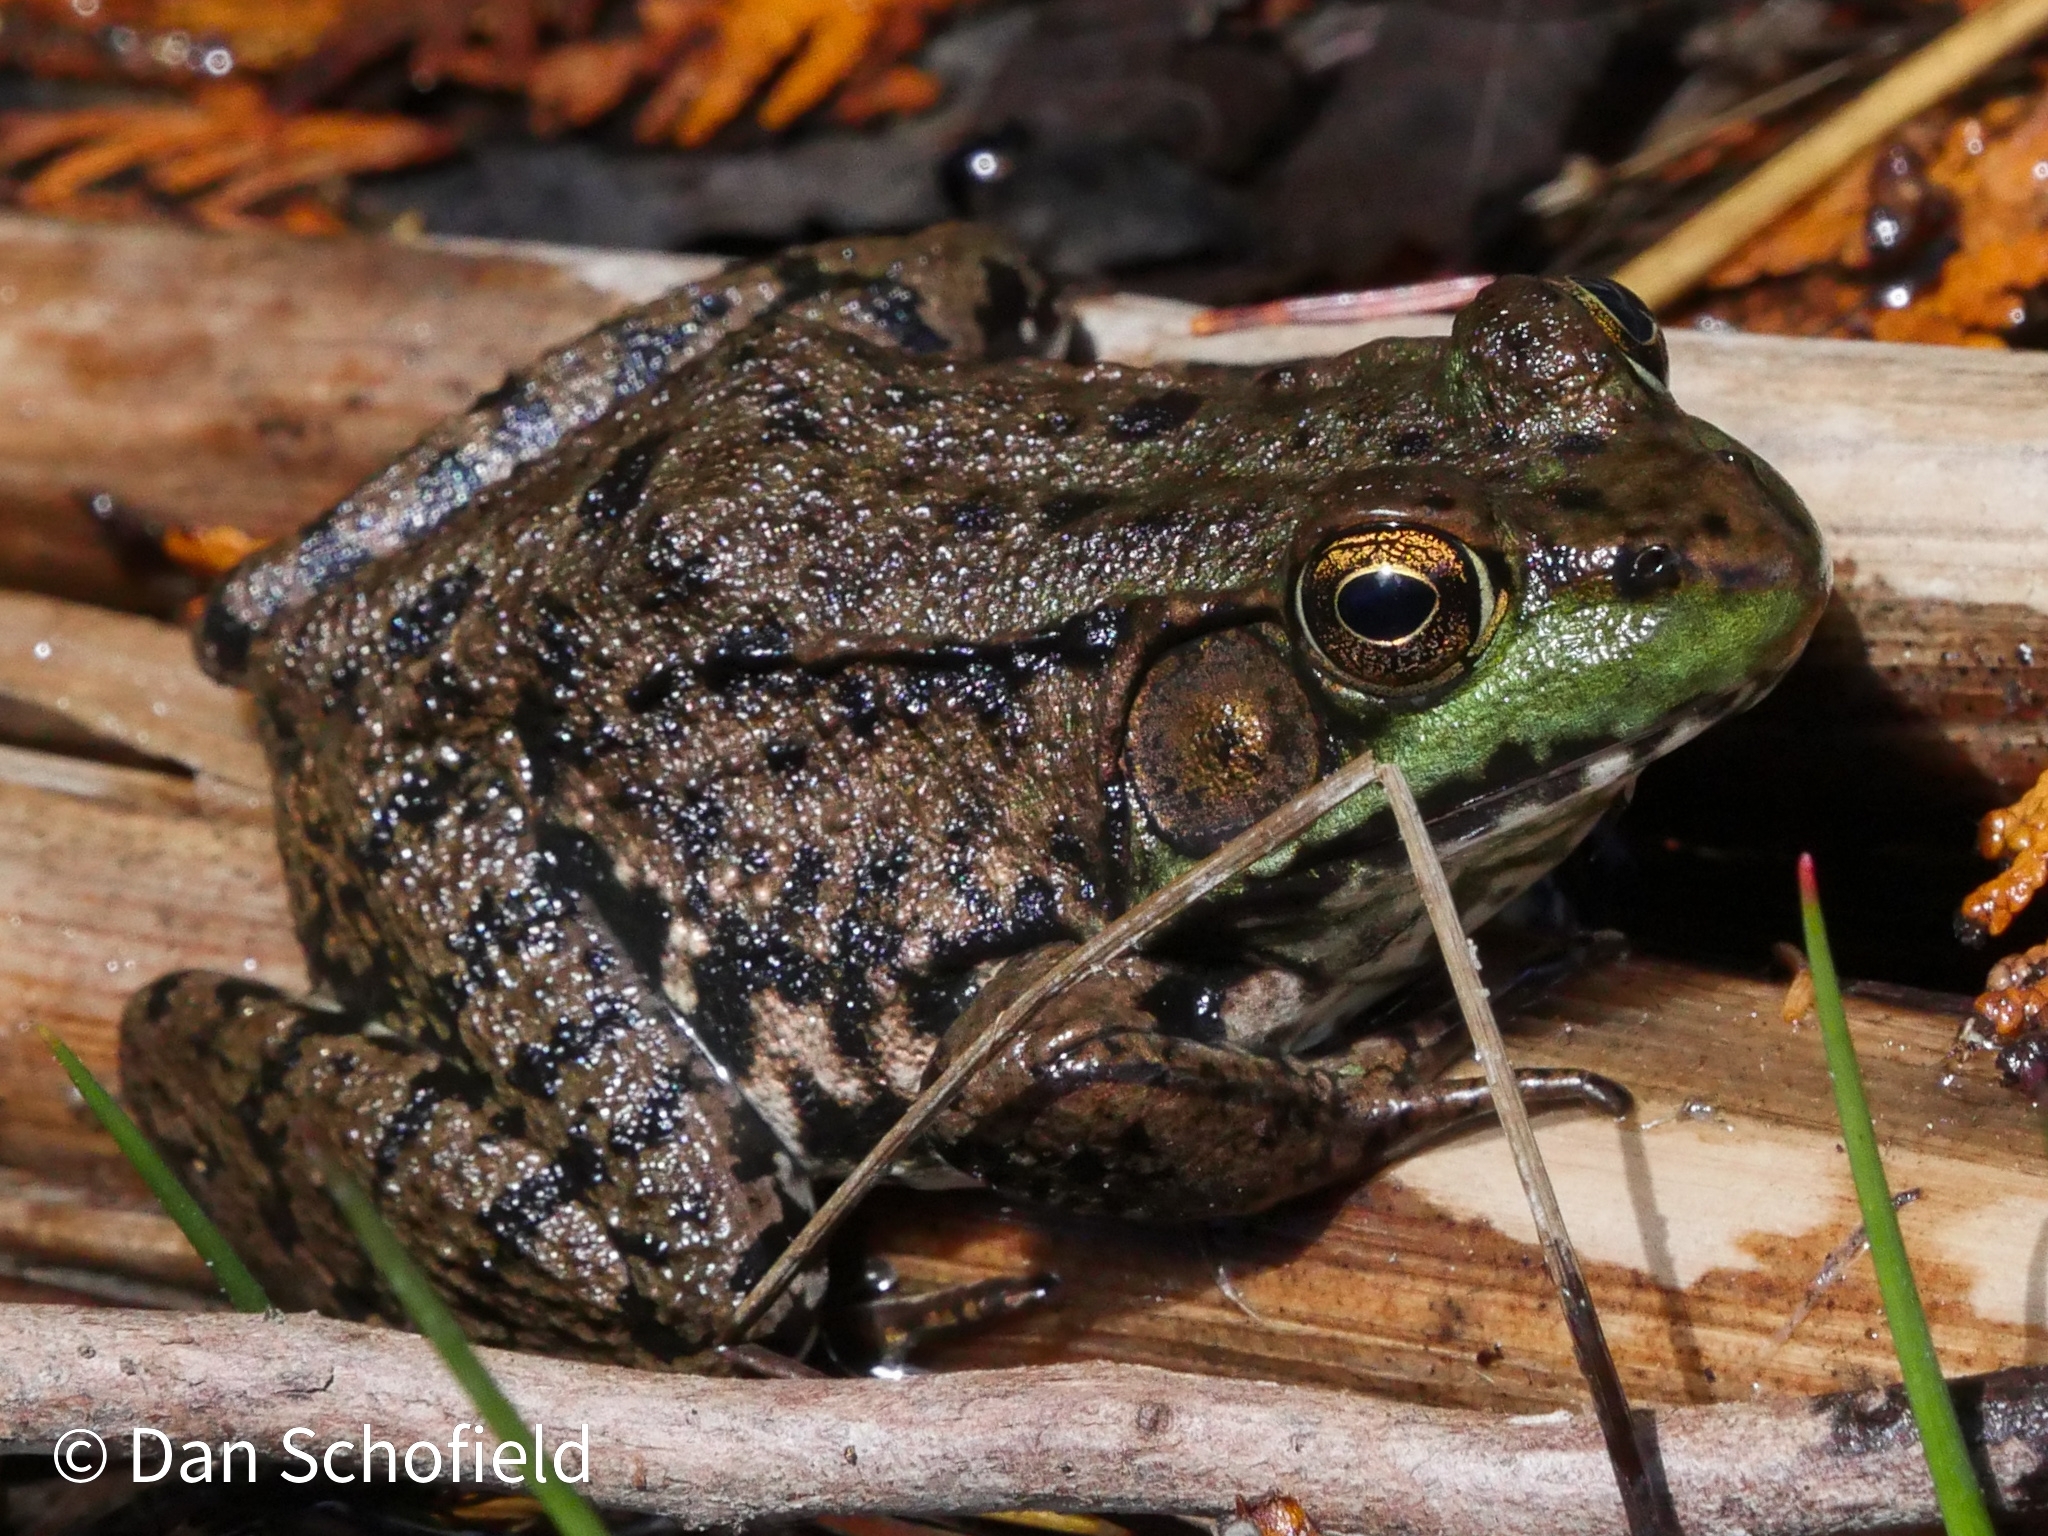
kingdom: Animalia
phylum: Chordata
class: Amphibia
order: Anura
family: Ranidae
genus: Lithobates
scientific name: Lithobates clamitans
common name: Green frog
